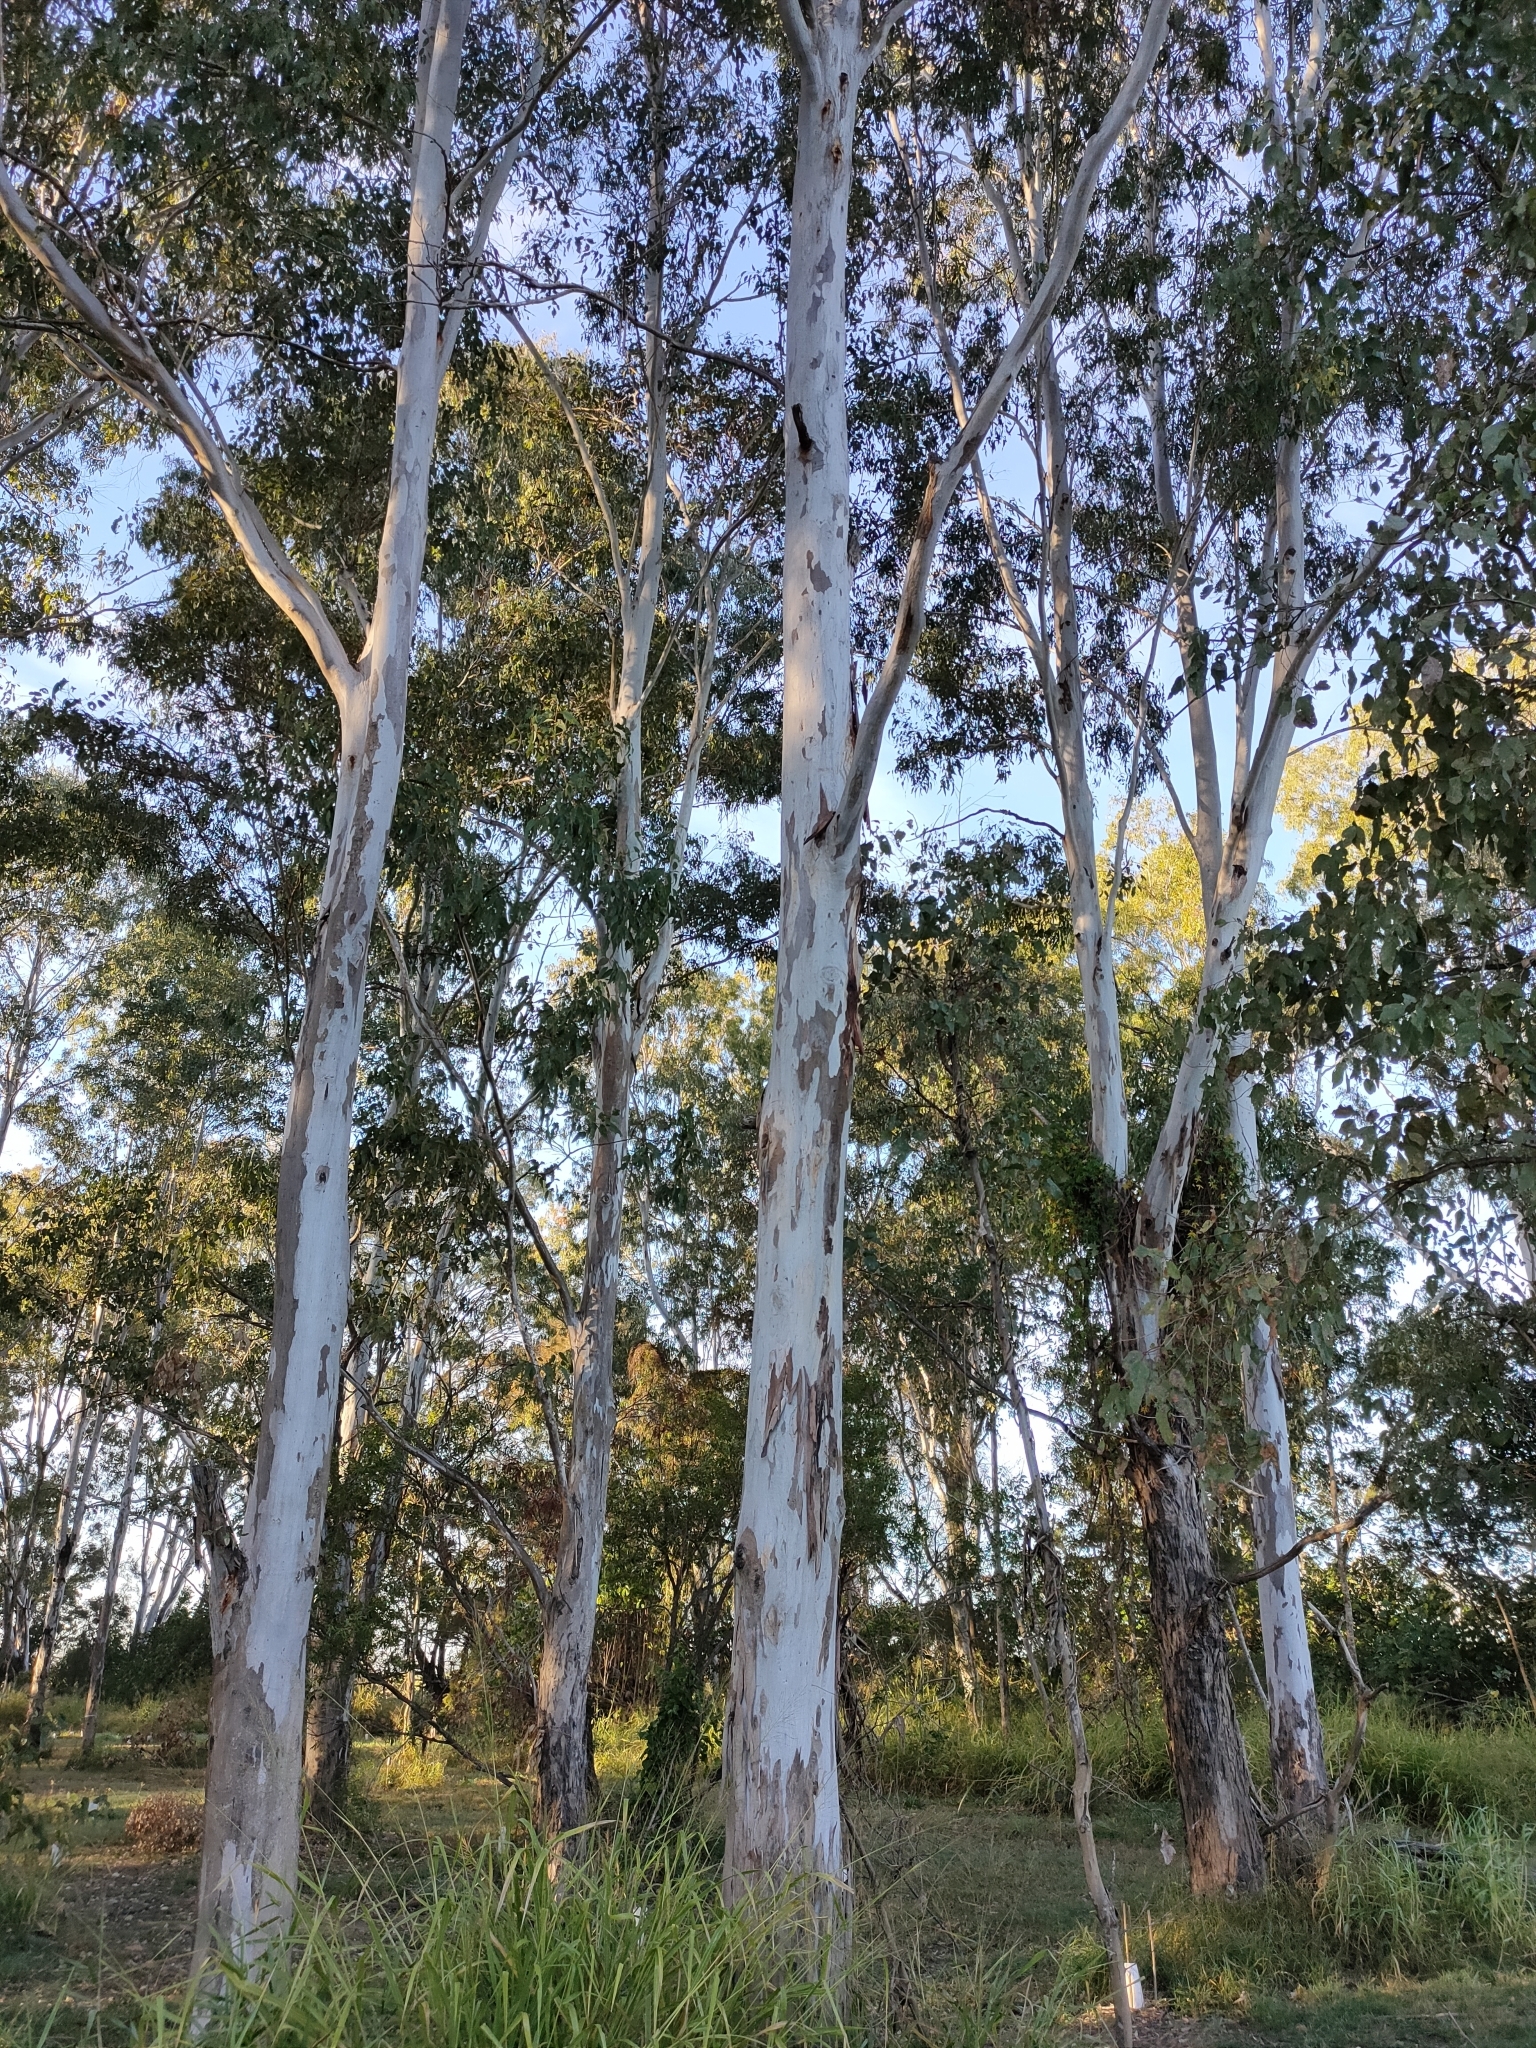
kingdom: Plantae
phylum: Tracheophyta
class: Magnoliopsida
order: Myrtales
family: Myrtaceae
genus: Eucalyptus
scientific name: Eucalyptus tereticornis
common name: Forest redgum
